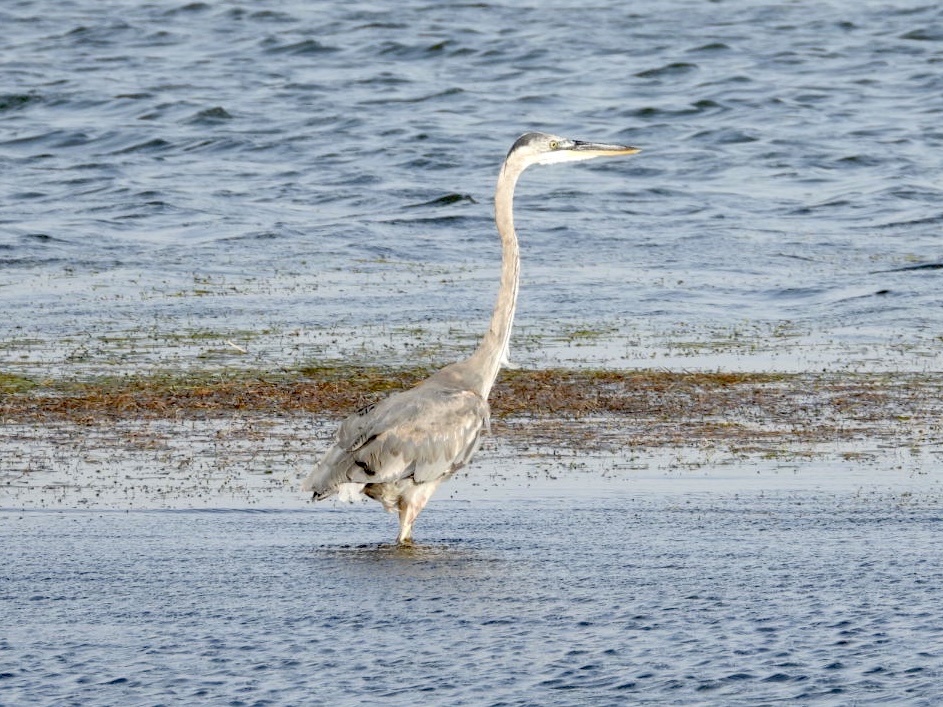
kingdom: Animalia
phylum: Chordata
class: Aves
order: Pelecaniformes
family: Ardeidae
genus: Ardea
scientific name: Ardea herodias
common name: Great blue heron
